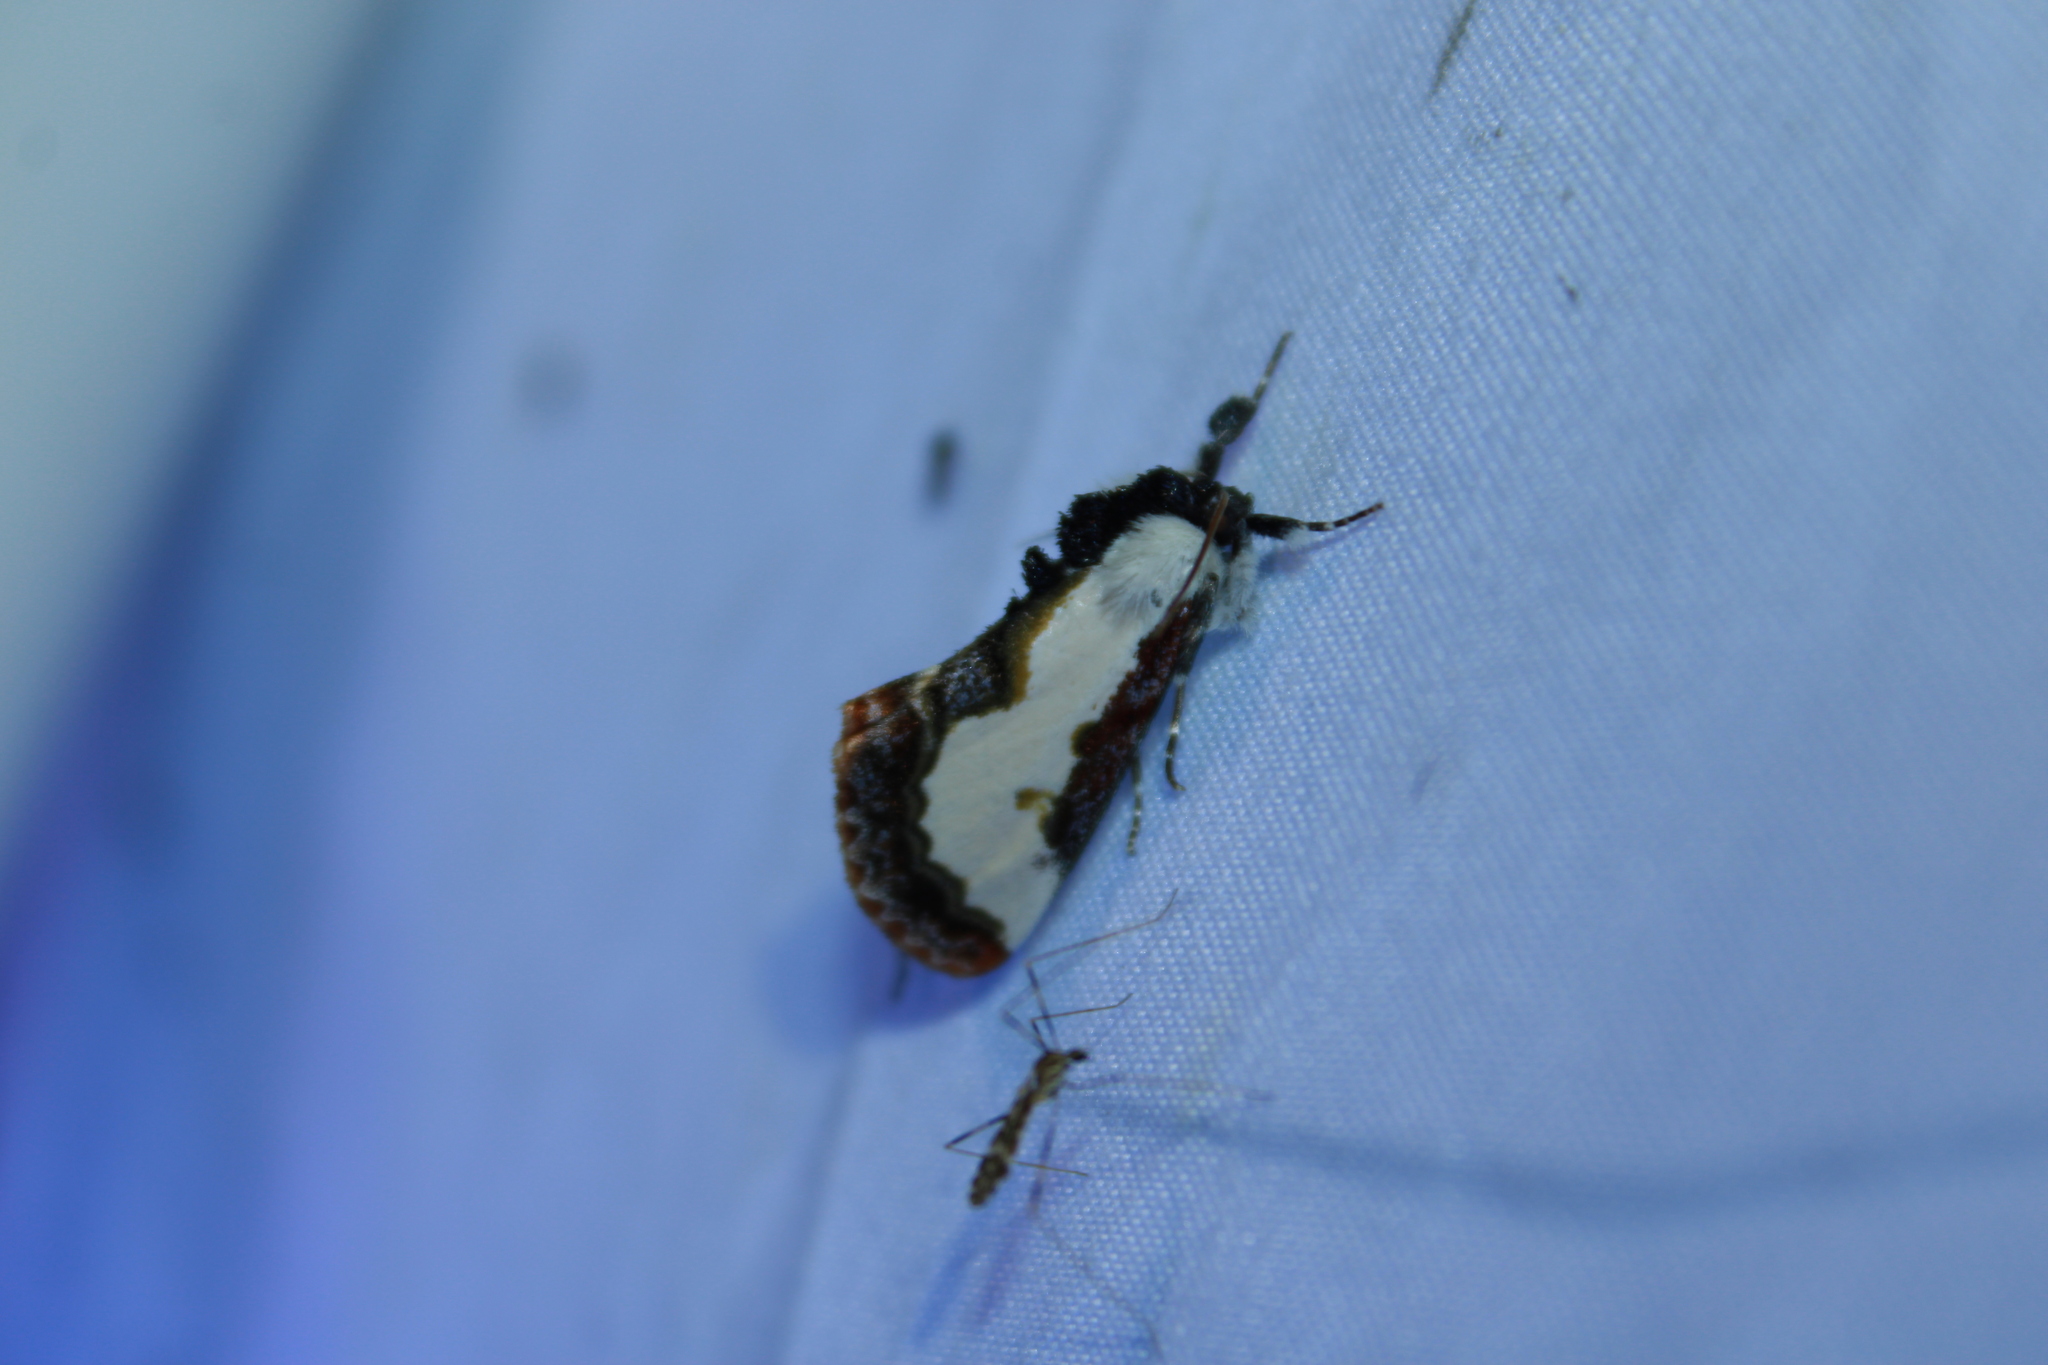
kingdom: Animalia
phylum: Arthropoda
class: Insecta
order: Lepidoptera
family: Noctuidae
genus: Eudryas
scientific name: Eudryas unio
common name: Pearly wood-nymph
